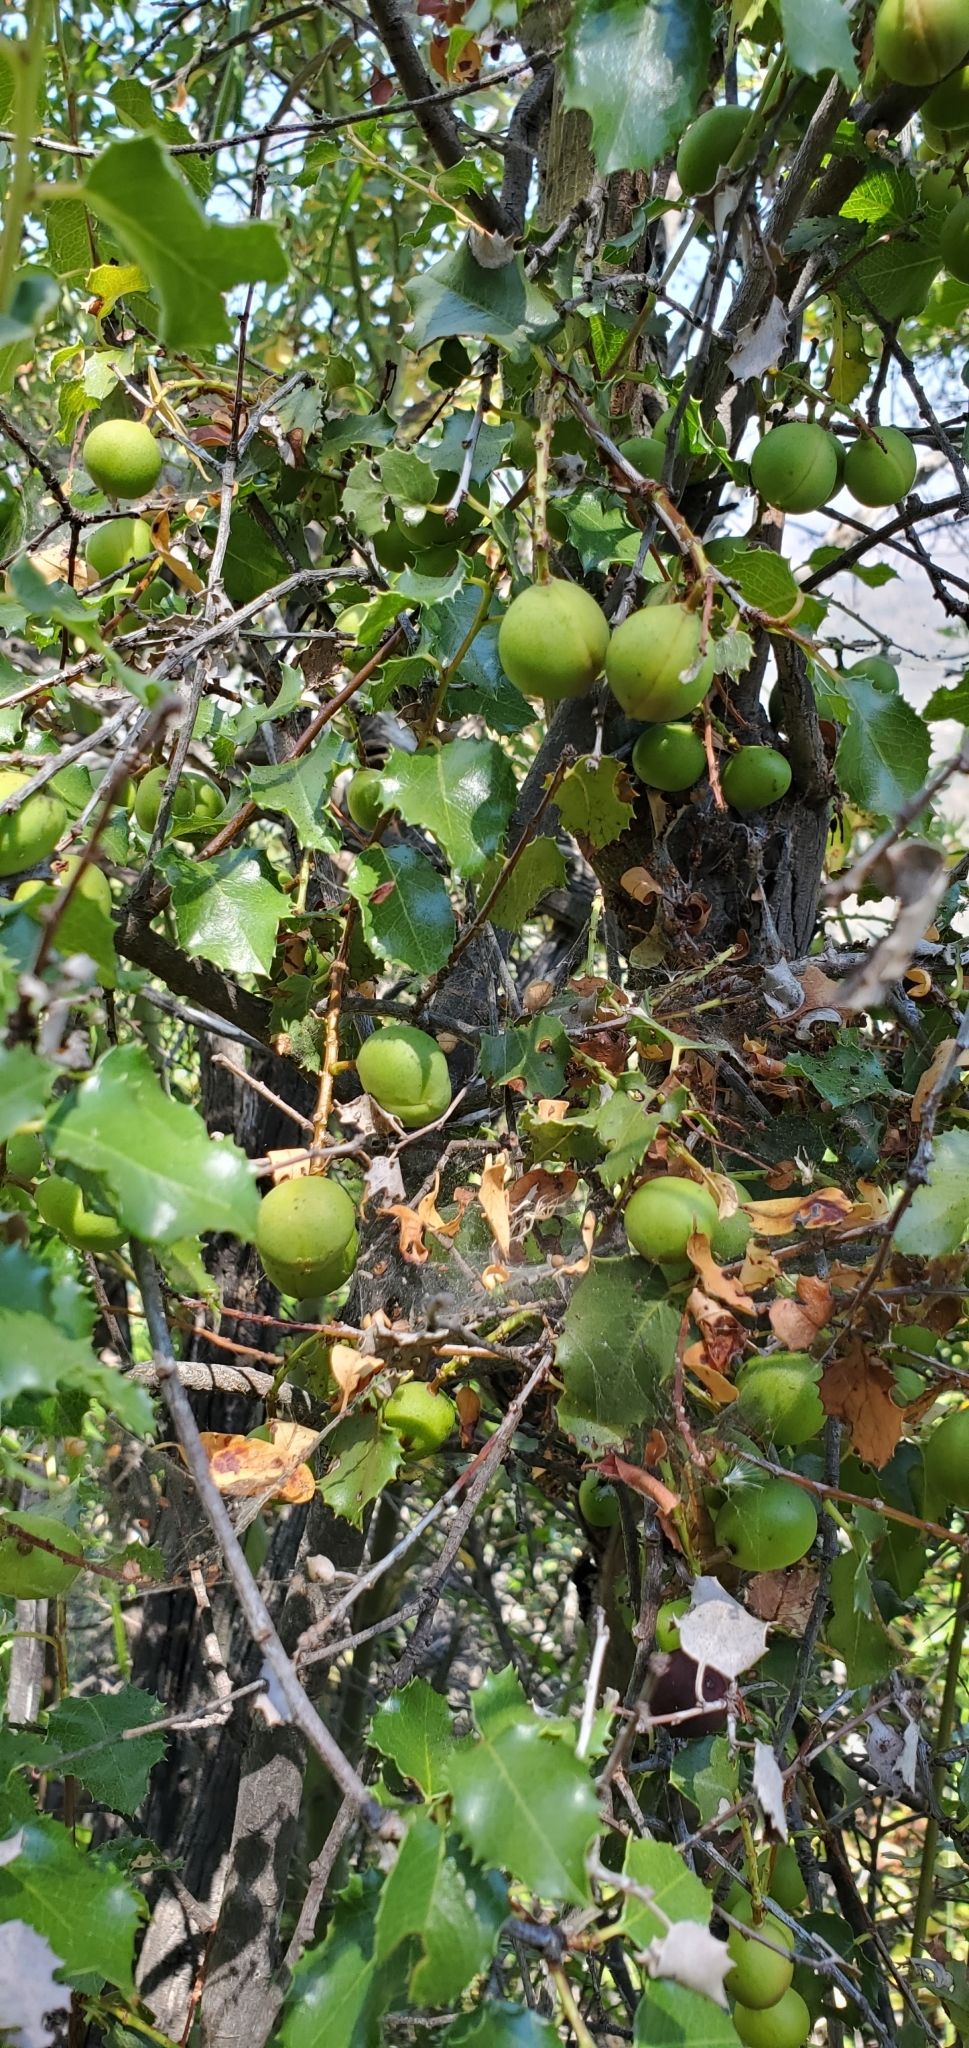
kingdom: Plantae
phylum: Tracheophyta
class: Magnoliopsida
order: Rosales
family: Rosaceae
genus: Prunus
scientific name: Prunus ilicifolia
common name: Hollyleaf cherry
